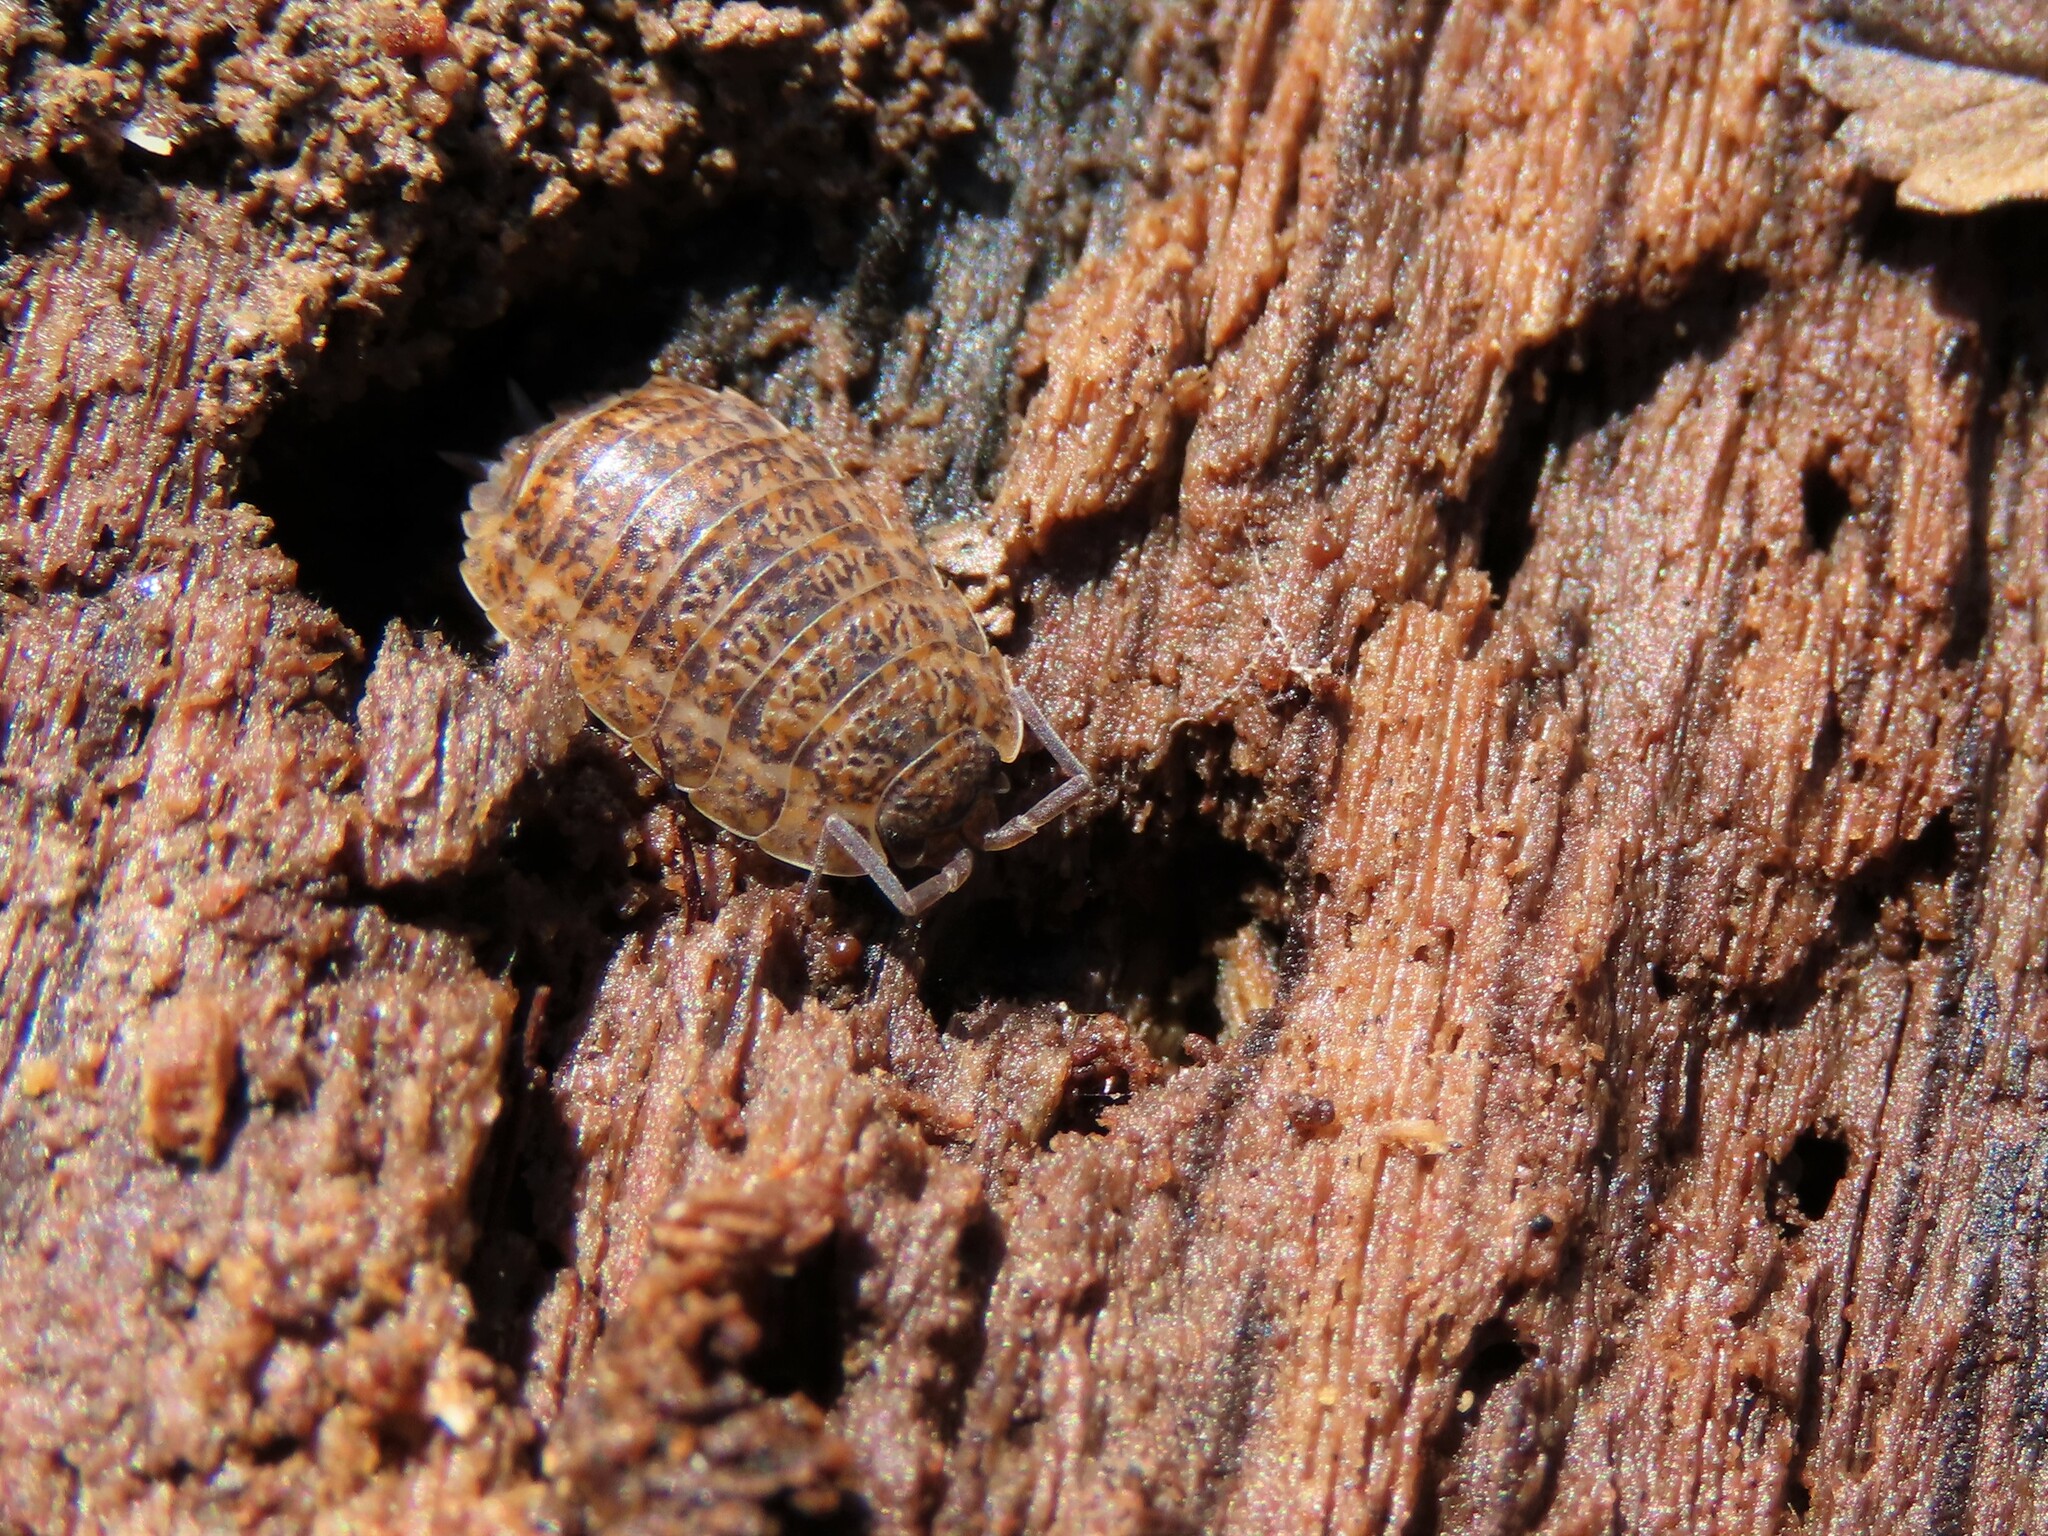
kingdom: Animalia
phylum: Arthropoda
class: Malacostraca
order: Isopoda
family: Trachelipodidae
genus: Trachelipus
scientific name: Trachelipus rathkii
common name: Isopod
